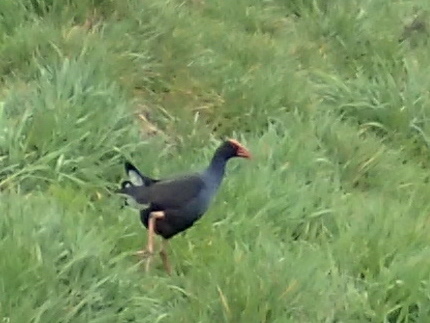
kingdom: Animalia
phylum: Chordata
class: Aves
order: Gruiformes
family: Rallidae
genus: Porphyrio
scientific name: Porphyrio melanotus
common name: Australasian swamphen
